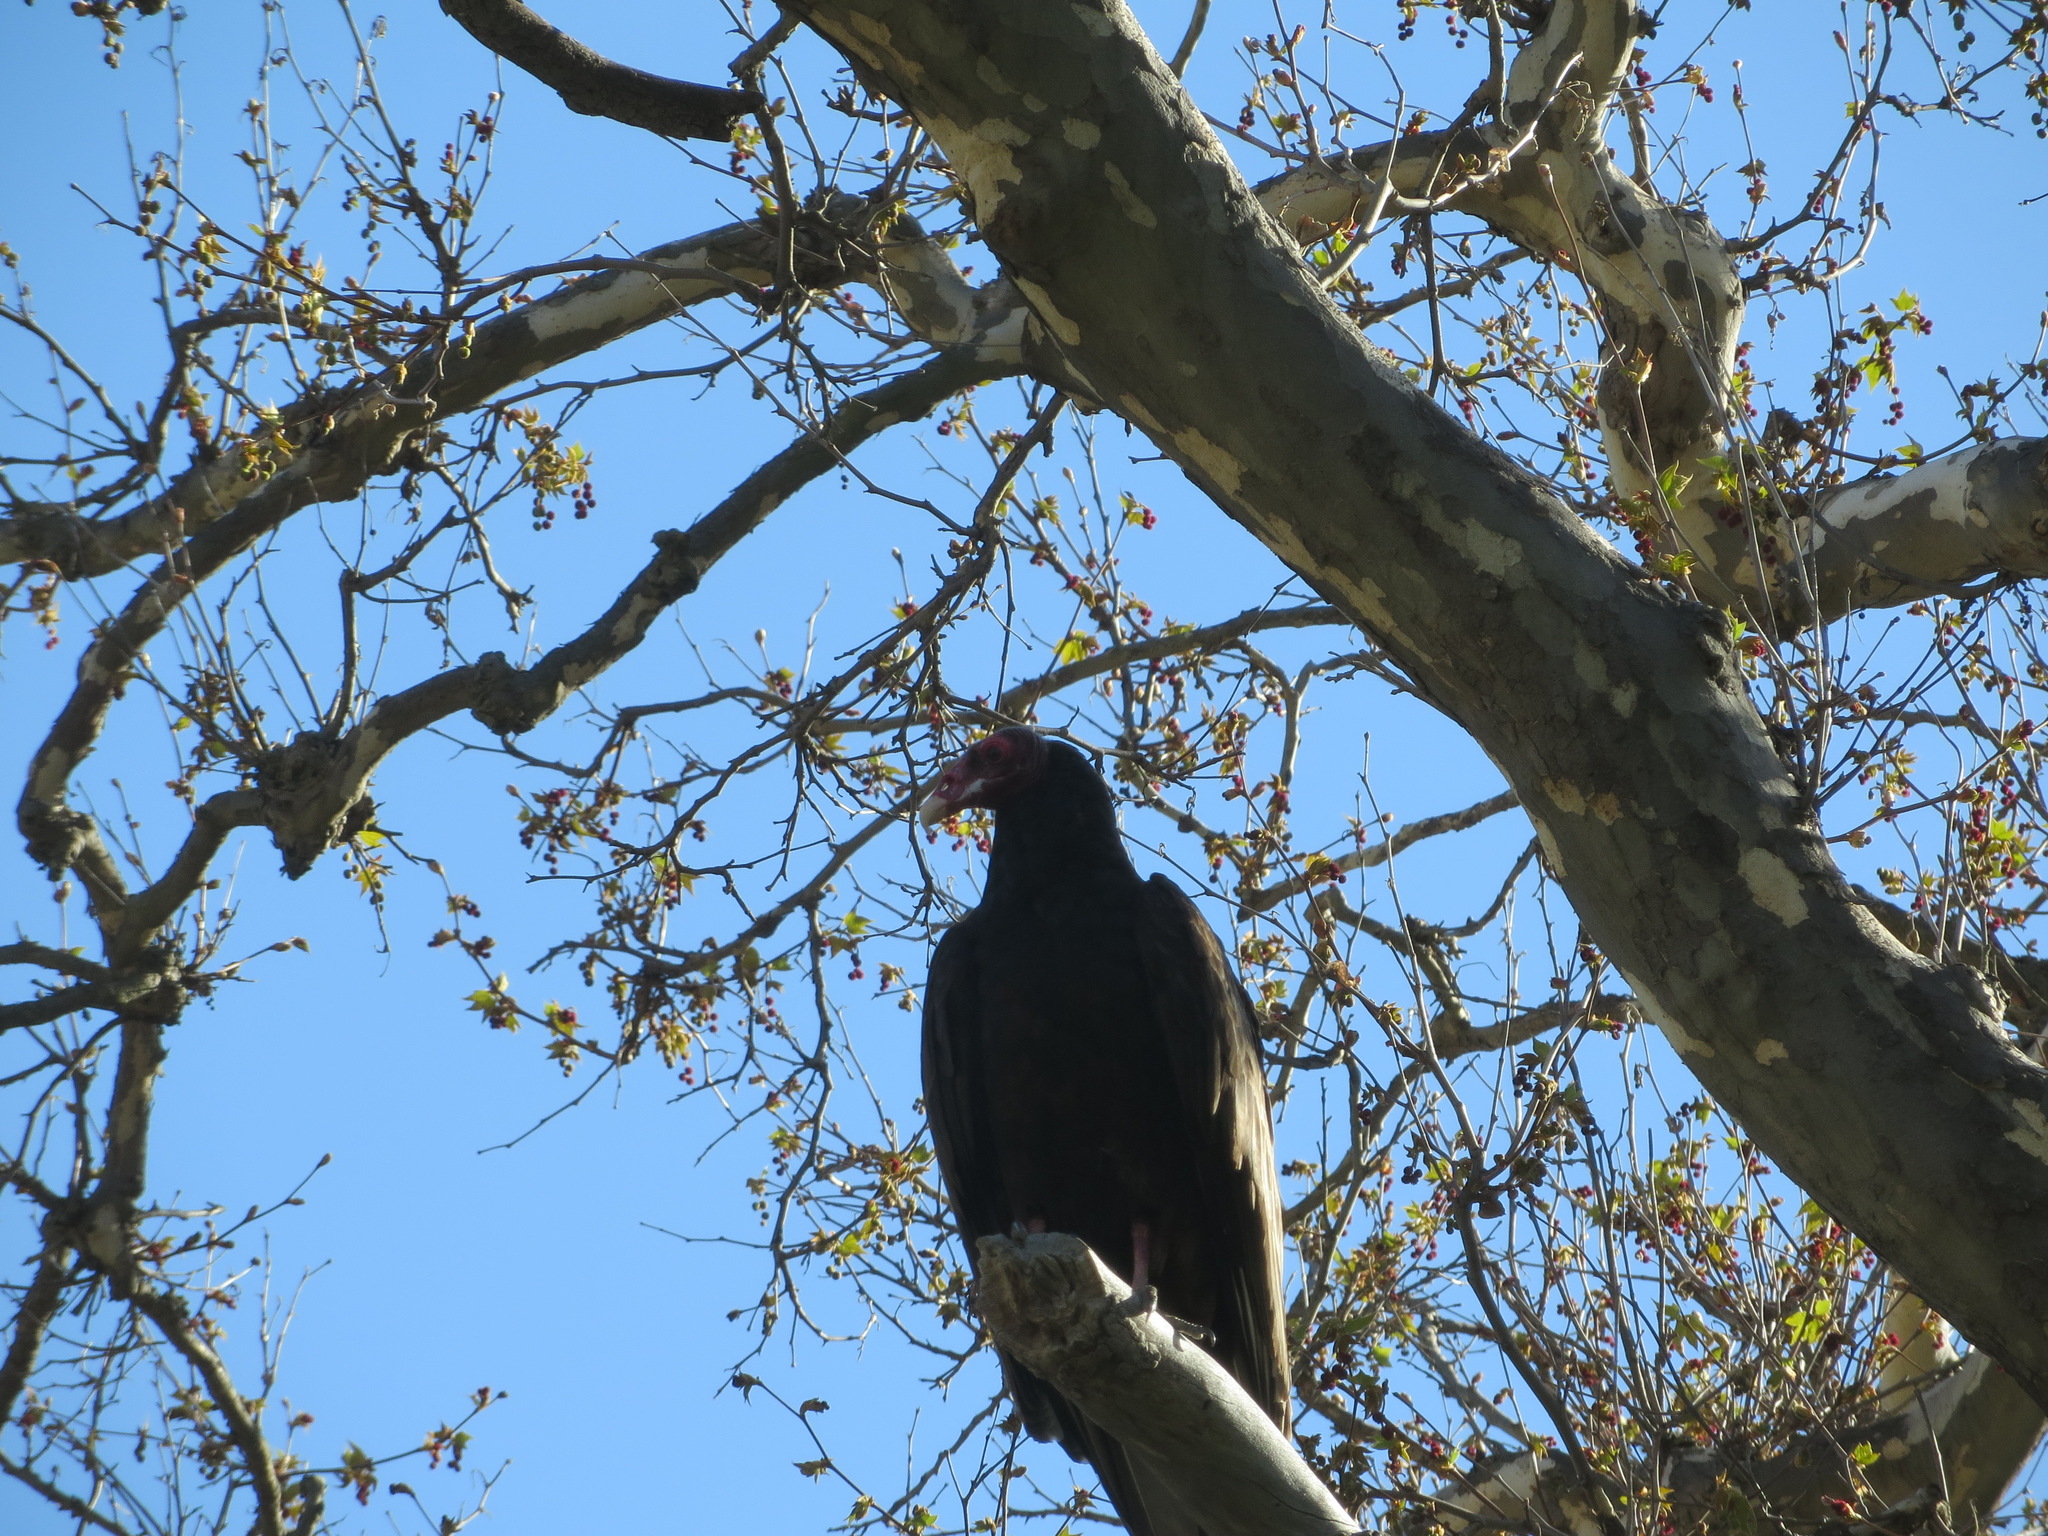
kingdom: Animalia
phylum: Chordata
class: Aves
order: Accipitriformes
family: Cathartidae
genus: Cathartes
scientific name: Cathartes aura
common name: Turkey vulture
